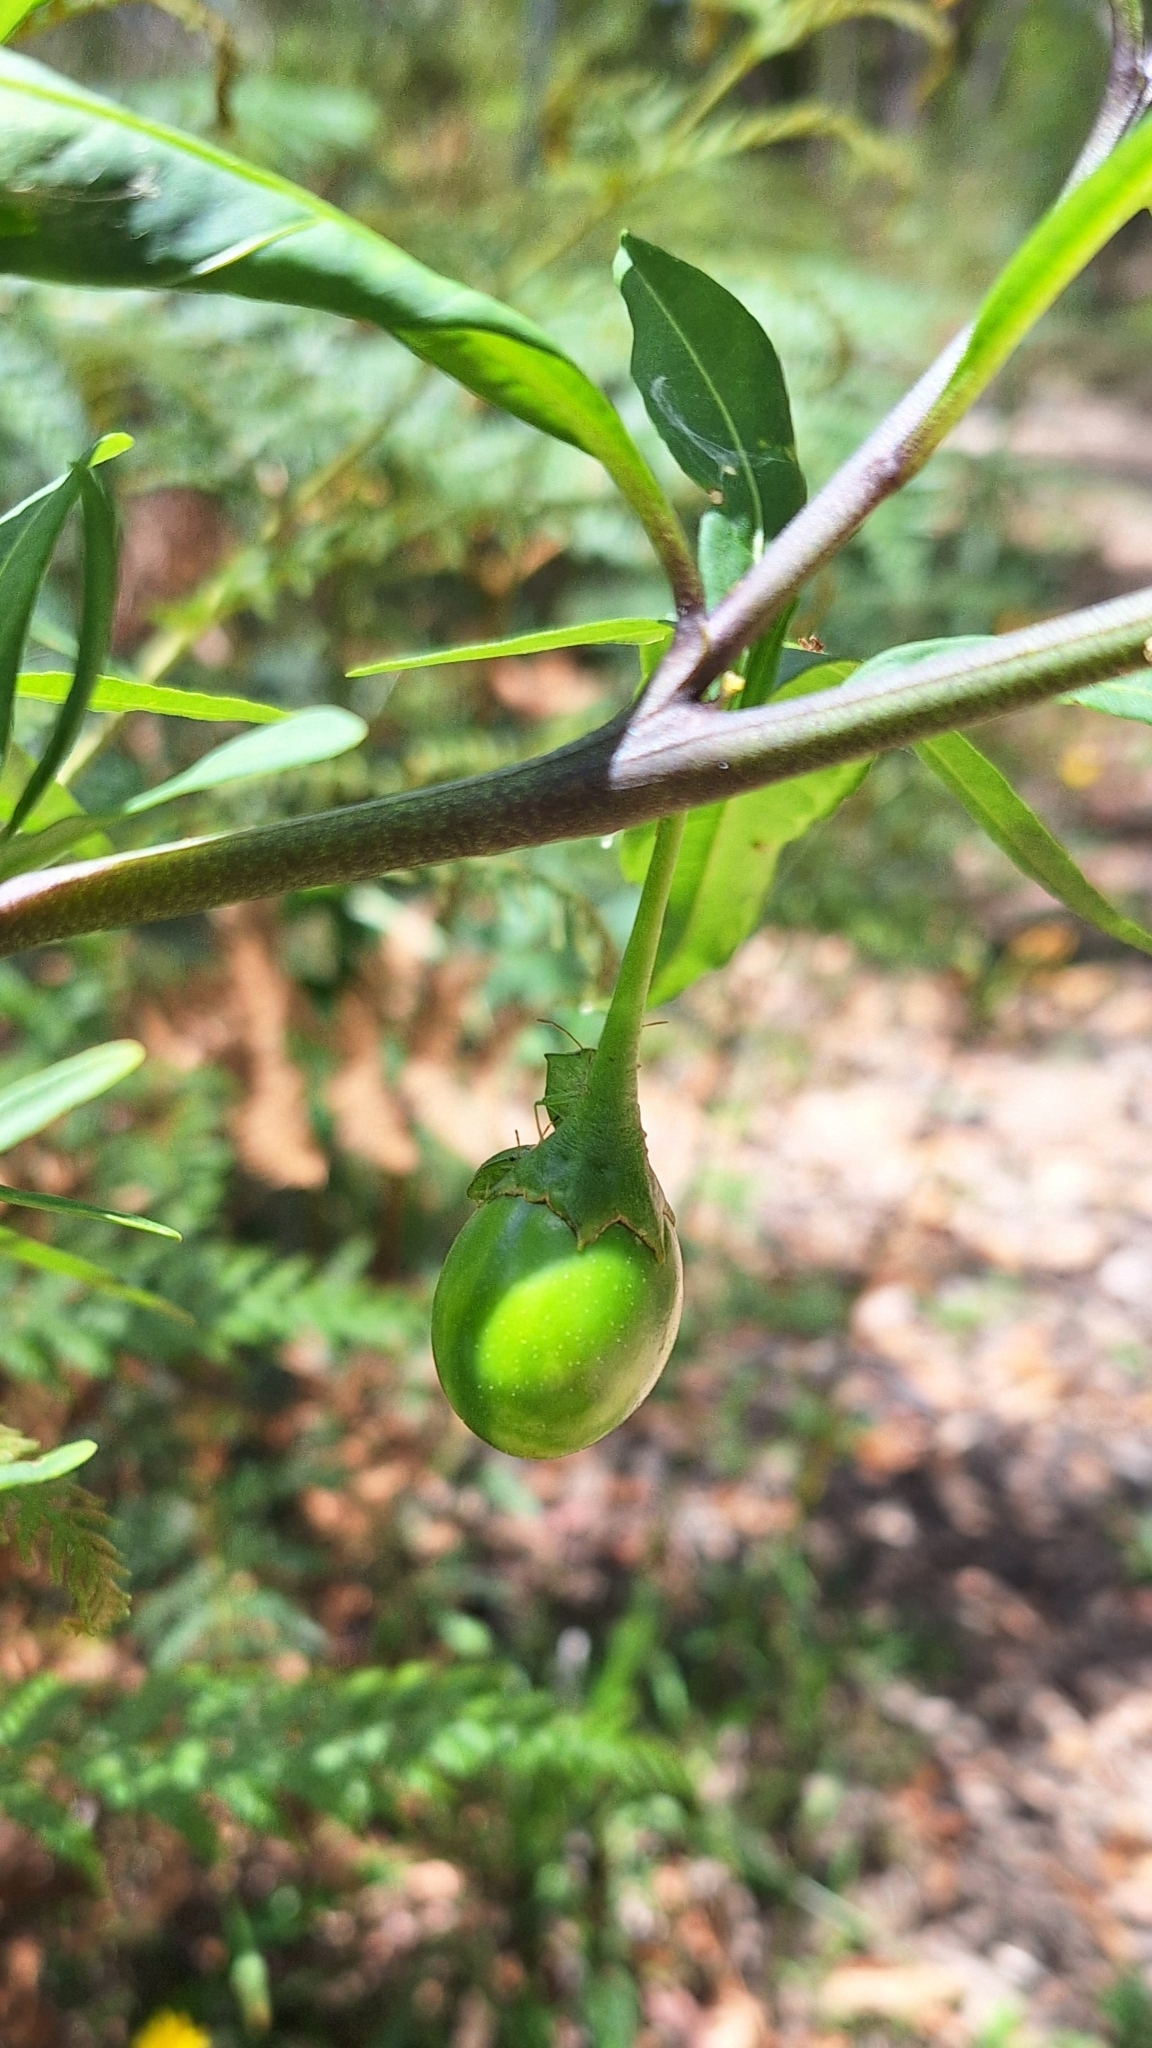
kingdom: Plantae
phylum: Tracheophyta
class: Magnoliopsida
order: Solanales
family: Solanaceae
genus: Solanum
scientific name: Solanum laciniatum
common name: Kangaroo-apple
